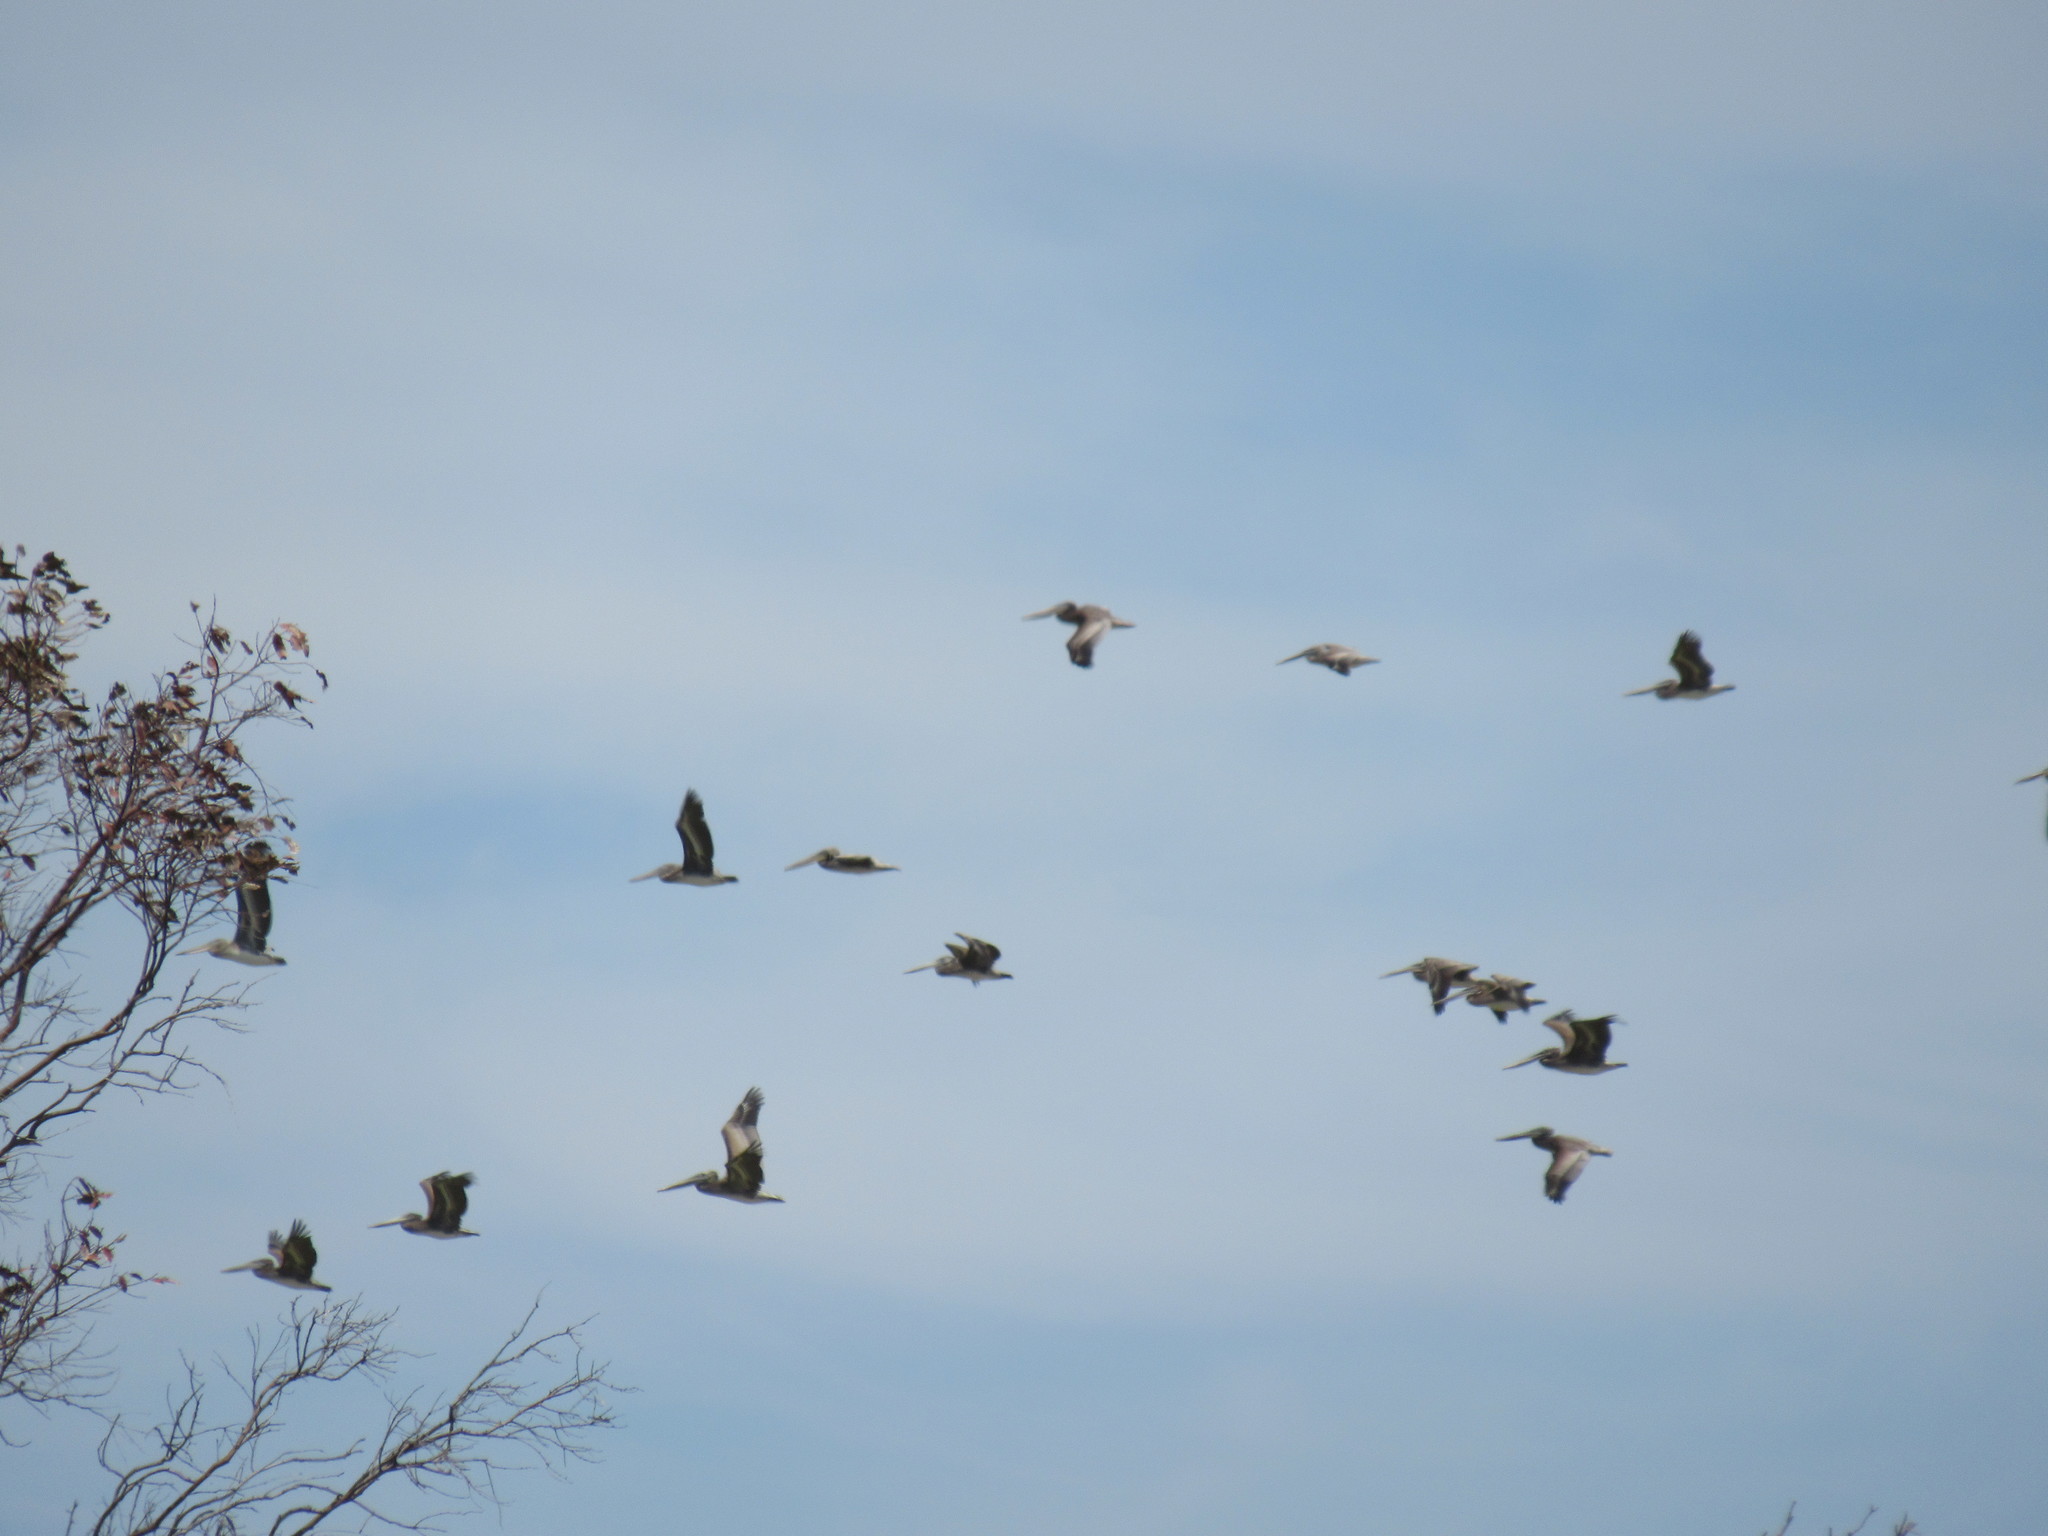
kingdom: Animalia
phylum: Chordata
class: Aves
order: Pelecaniformes
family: Pelecanidae
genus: Pelecanus
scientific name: Pelecanus occidentalis
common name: Brown pelican
